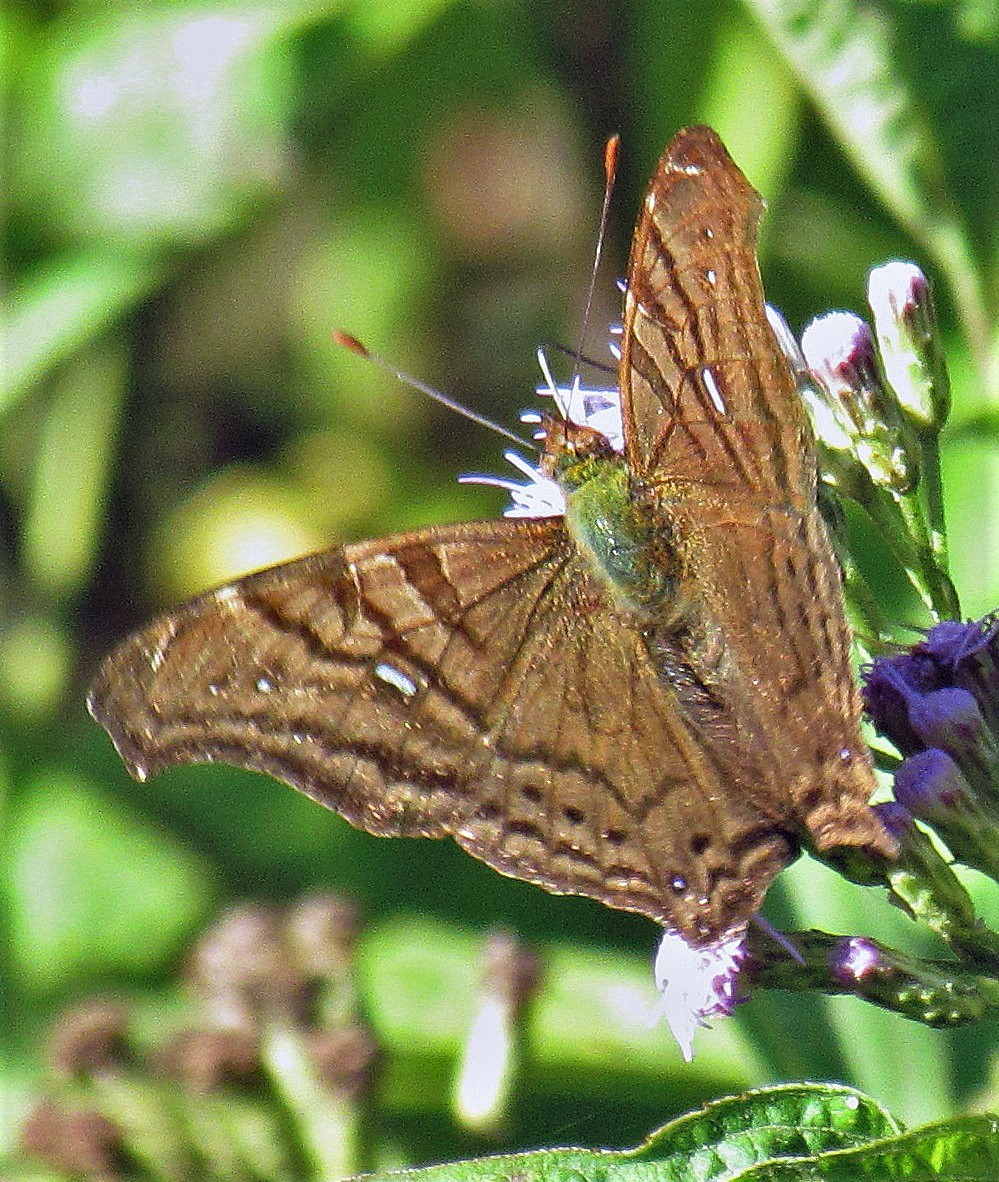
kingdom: Animalia
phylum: Arthropoda
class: Insecta
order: Lepidoptera
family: Nymphalidae
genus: Hypanartia
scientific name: Hypanartia dione
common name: Banded mapwing
